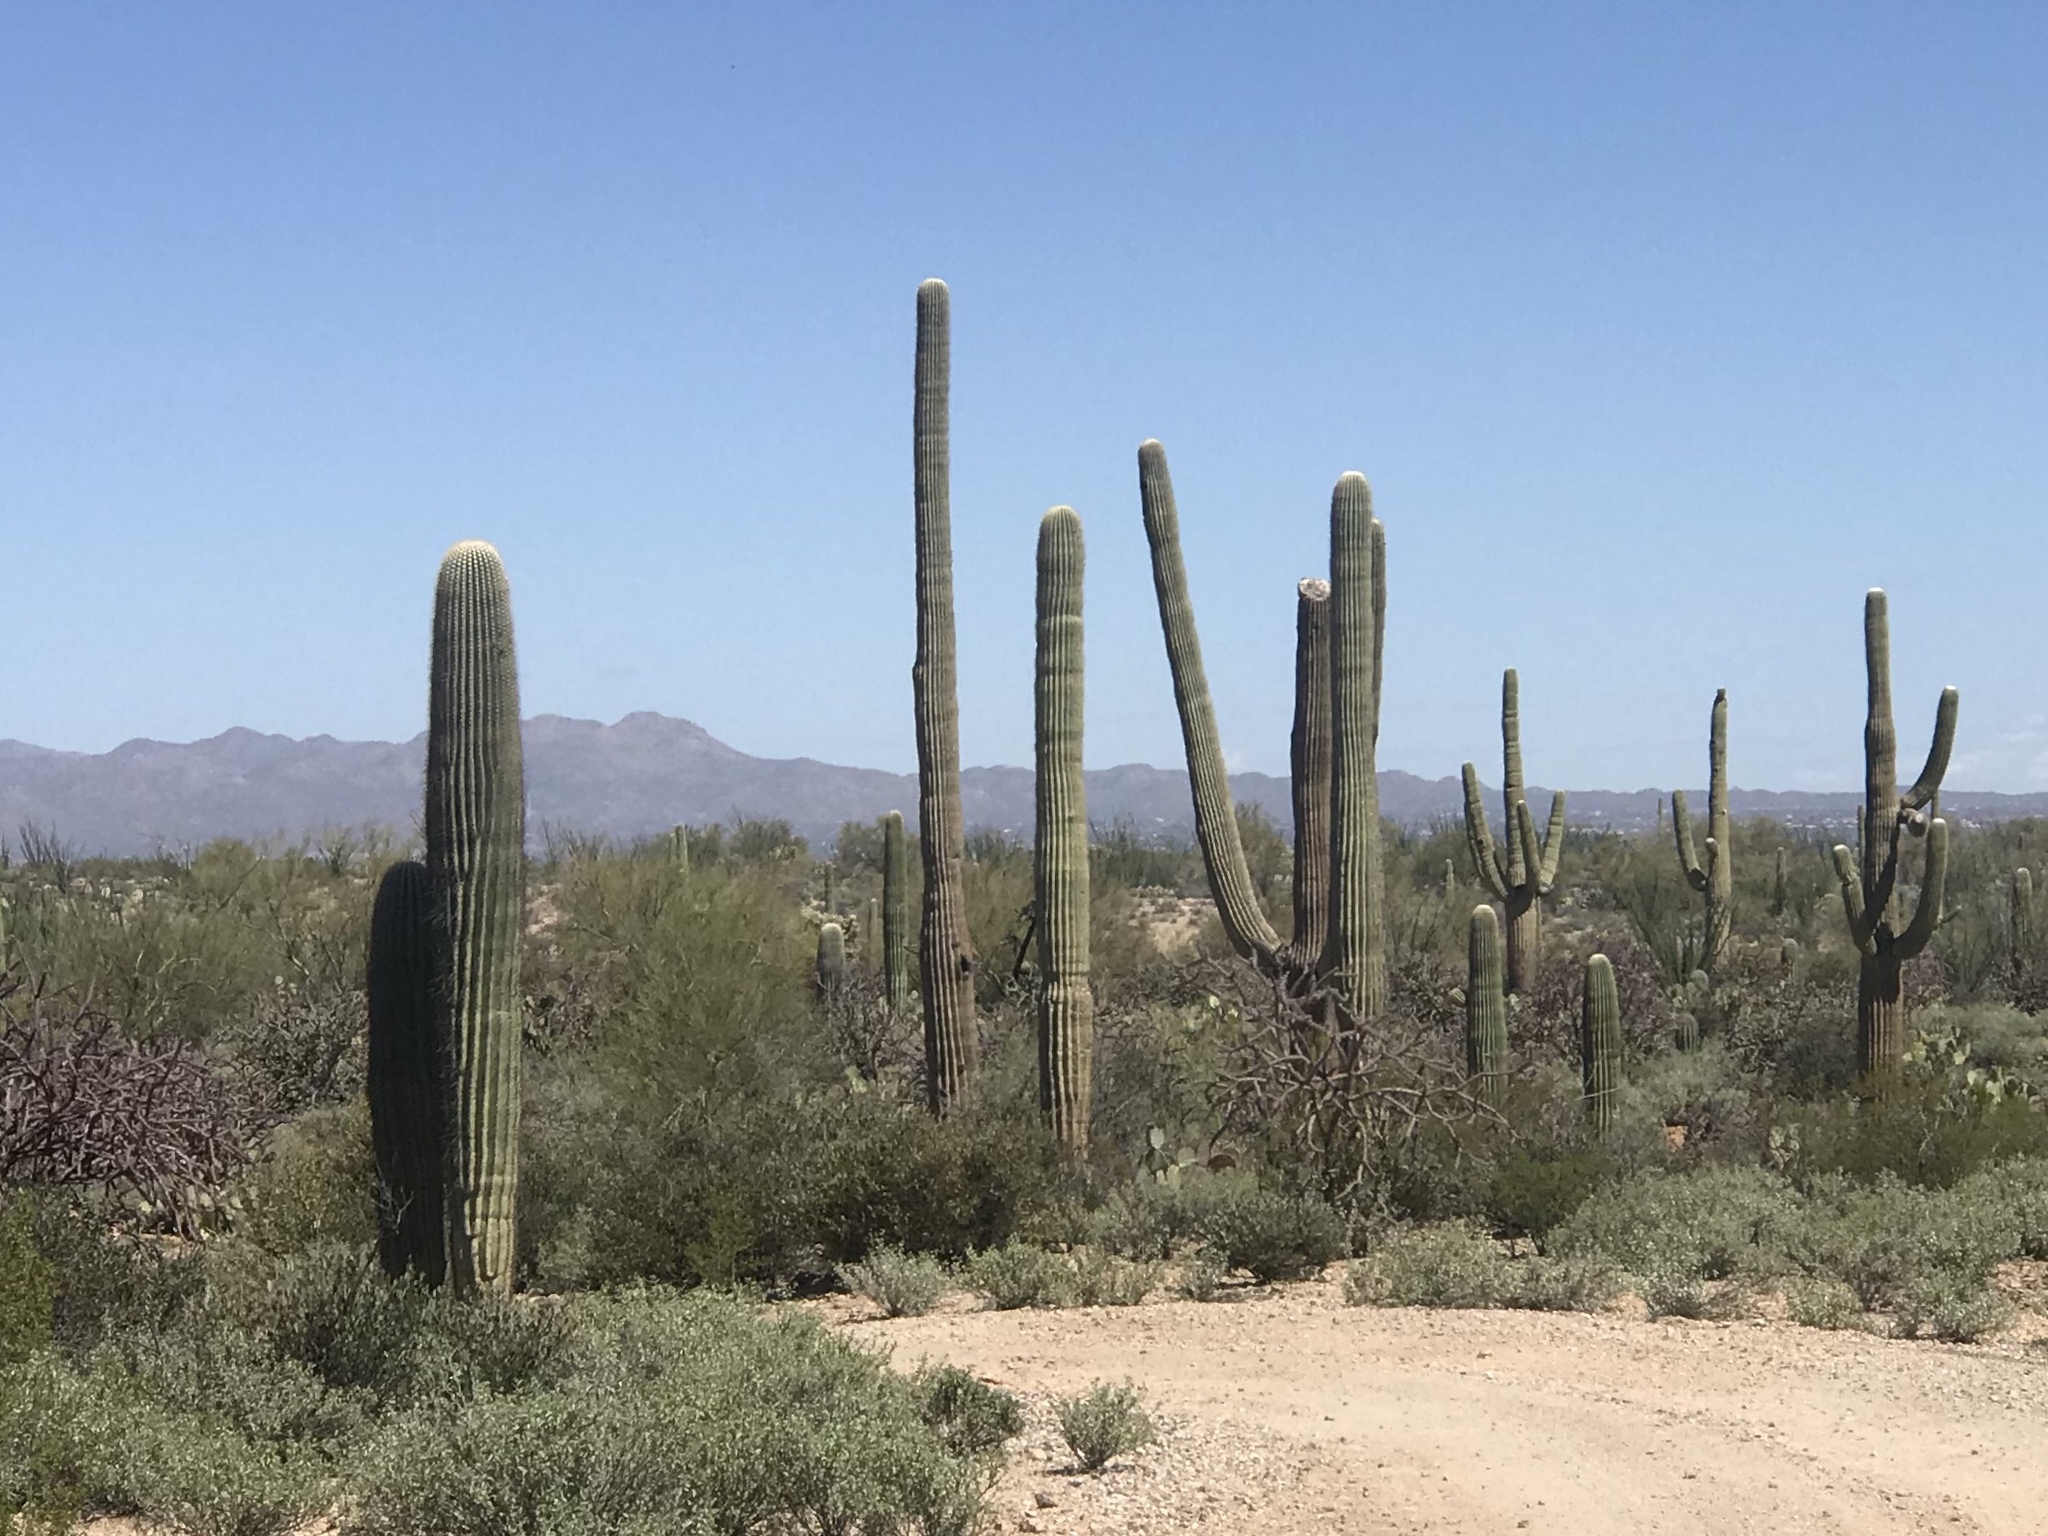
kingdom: Plantae
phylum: Tracheophyta
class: Magnoliopsida
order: Caryophyllales
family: Cactaceae
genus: Carnegiea
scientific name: Carnegiea gigantea
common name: Saguaro
